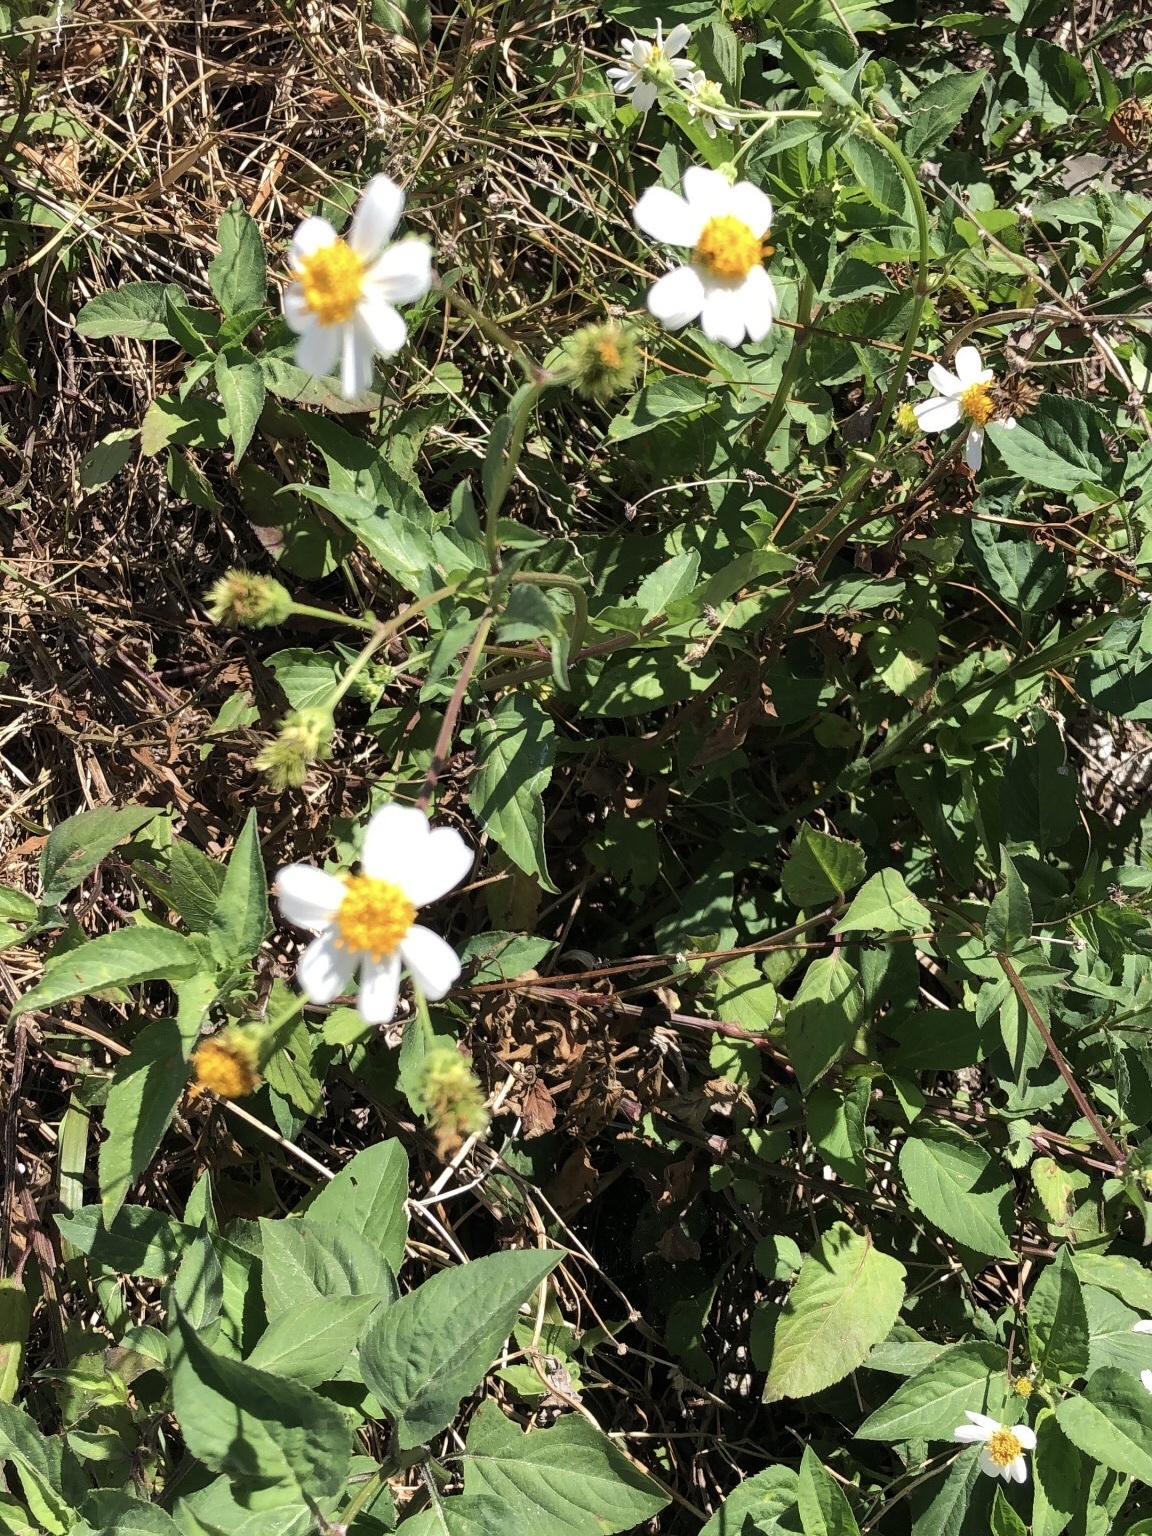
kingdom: Plantae
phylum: Tracheophyta
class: Magnoliopsida
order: Asterales
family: Asteraceae
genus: Bidens
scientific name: Bidens alba
